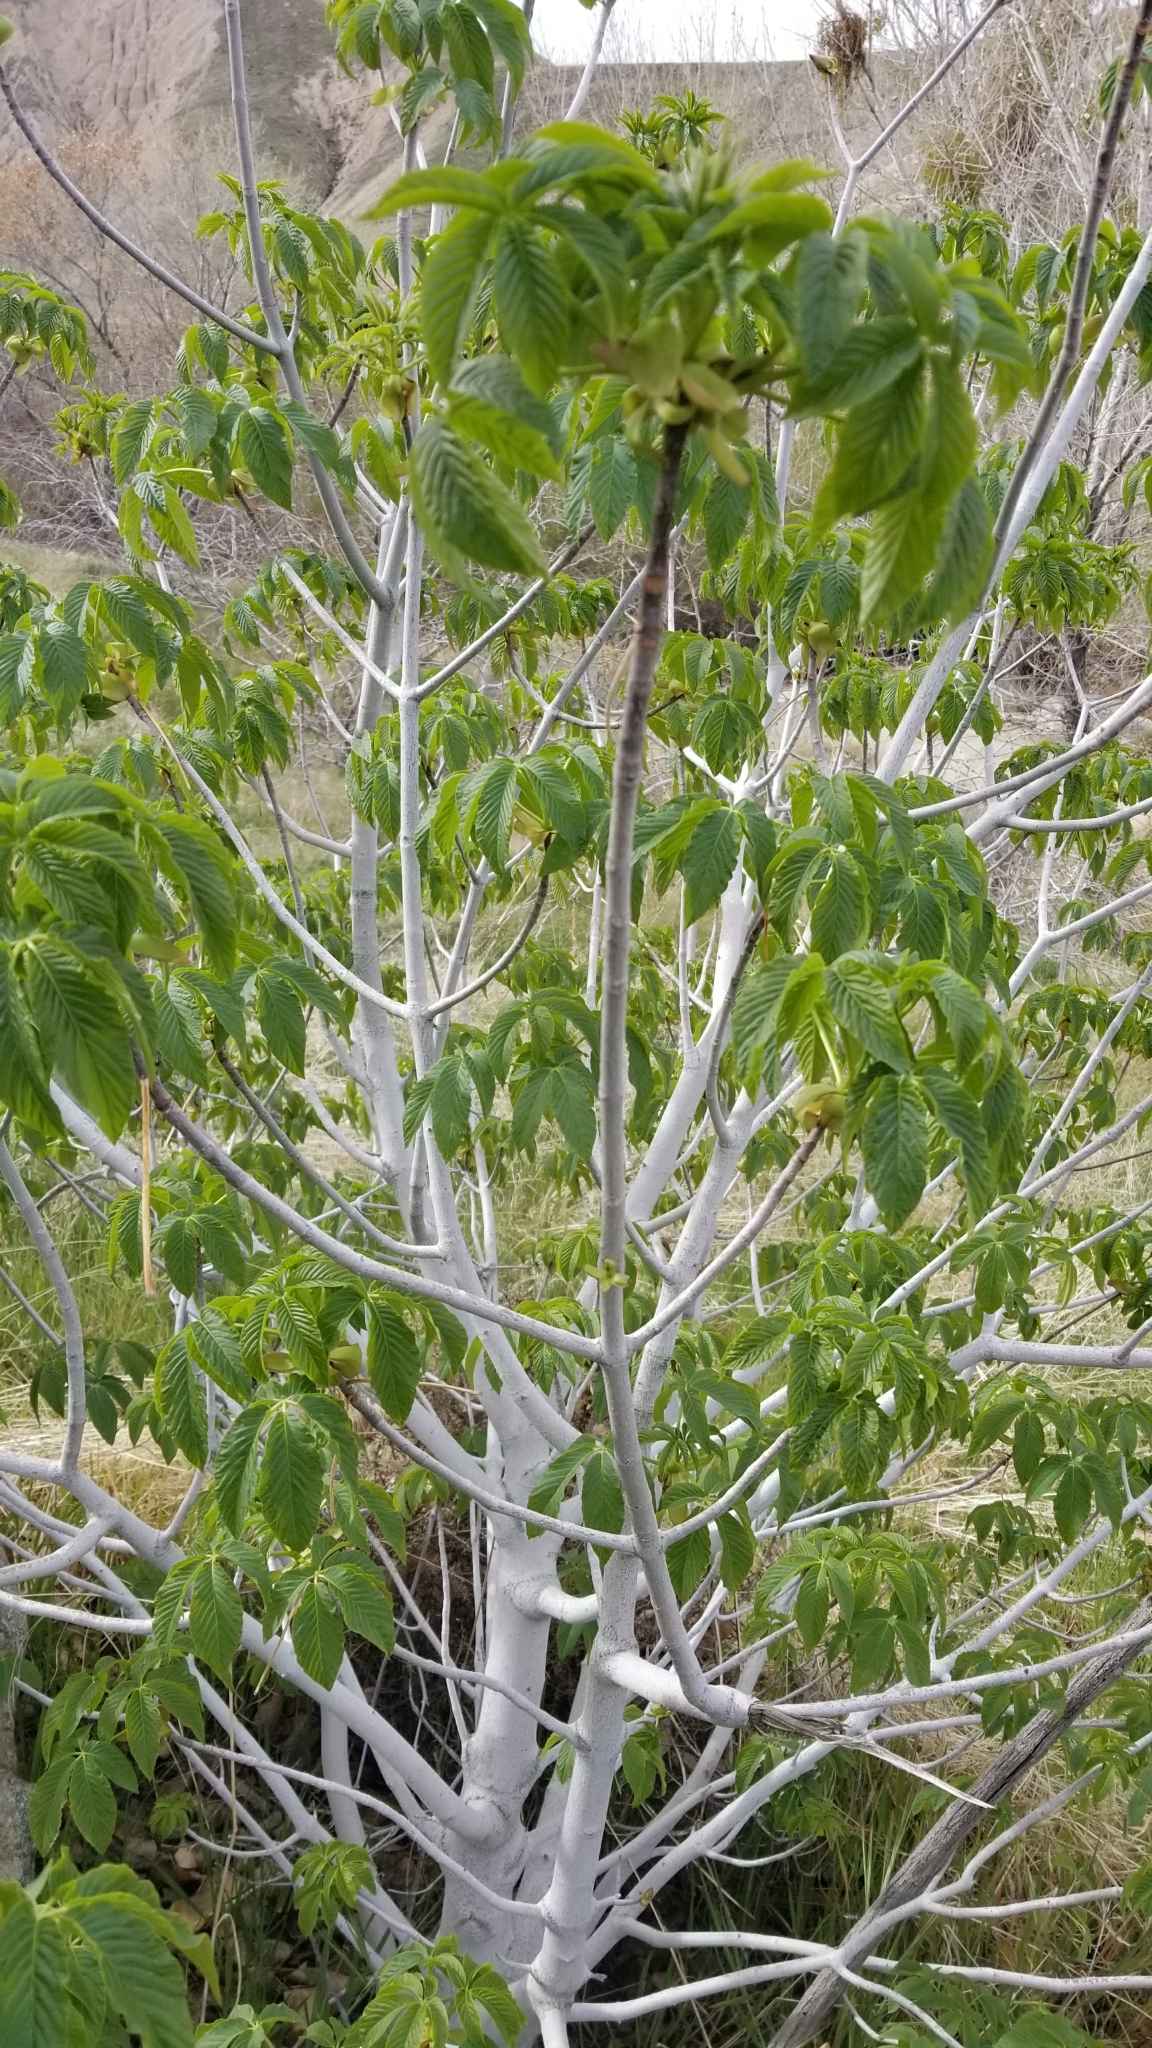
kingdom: Plantae
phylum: Tracheophyta
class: Magnoliopsida
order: Sapindales
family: Sapindaceae
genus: Aesculus
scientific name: Aesculus californica
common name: California buckeye
